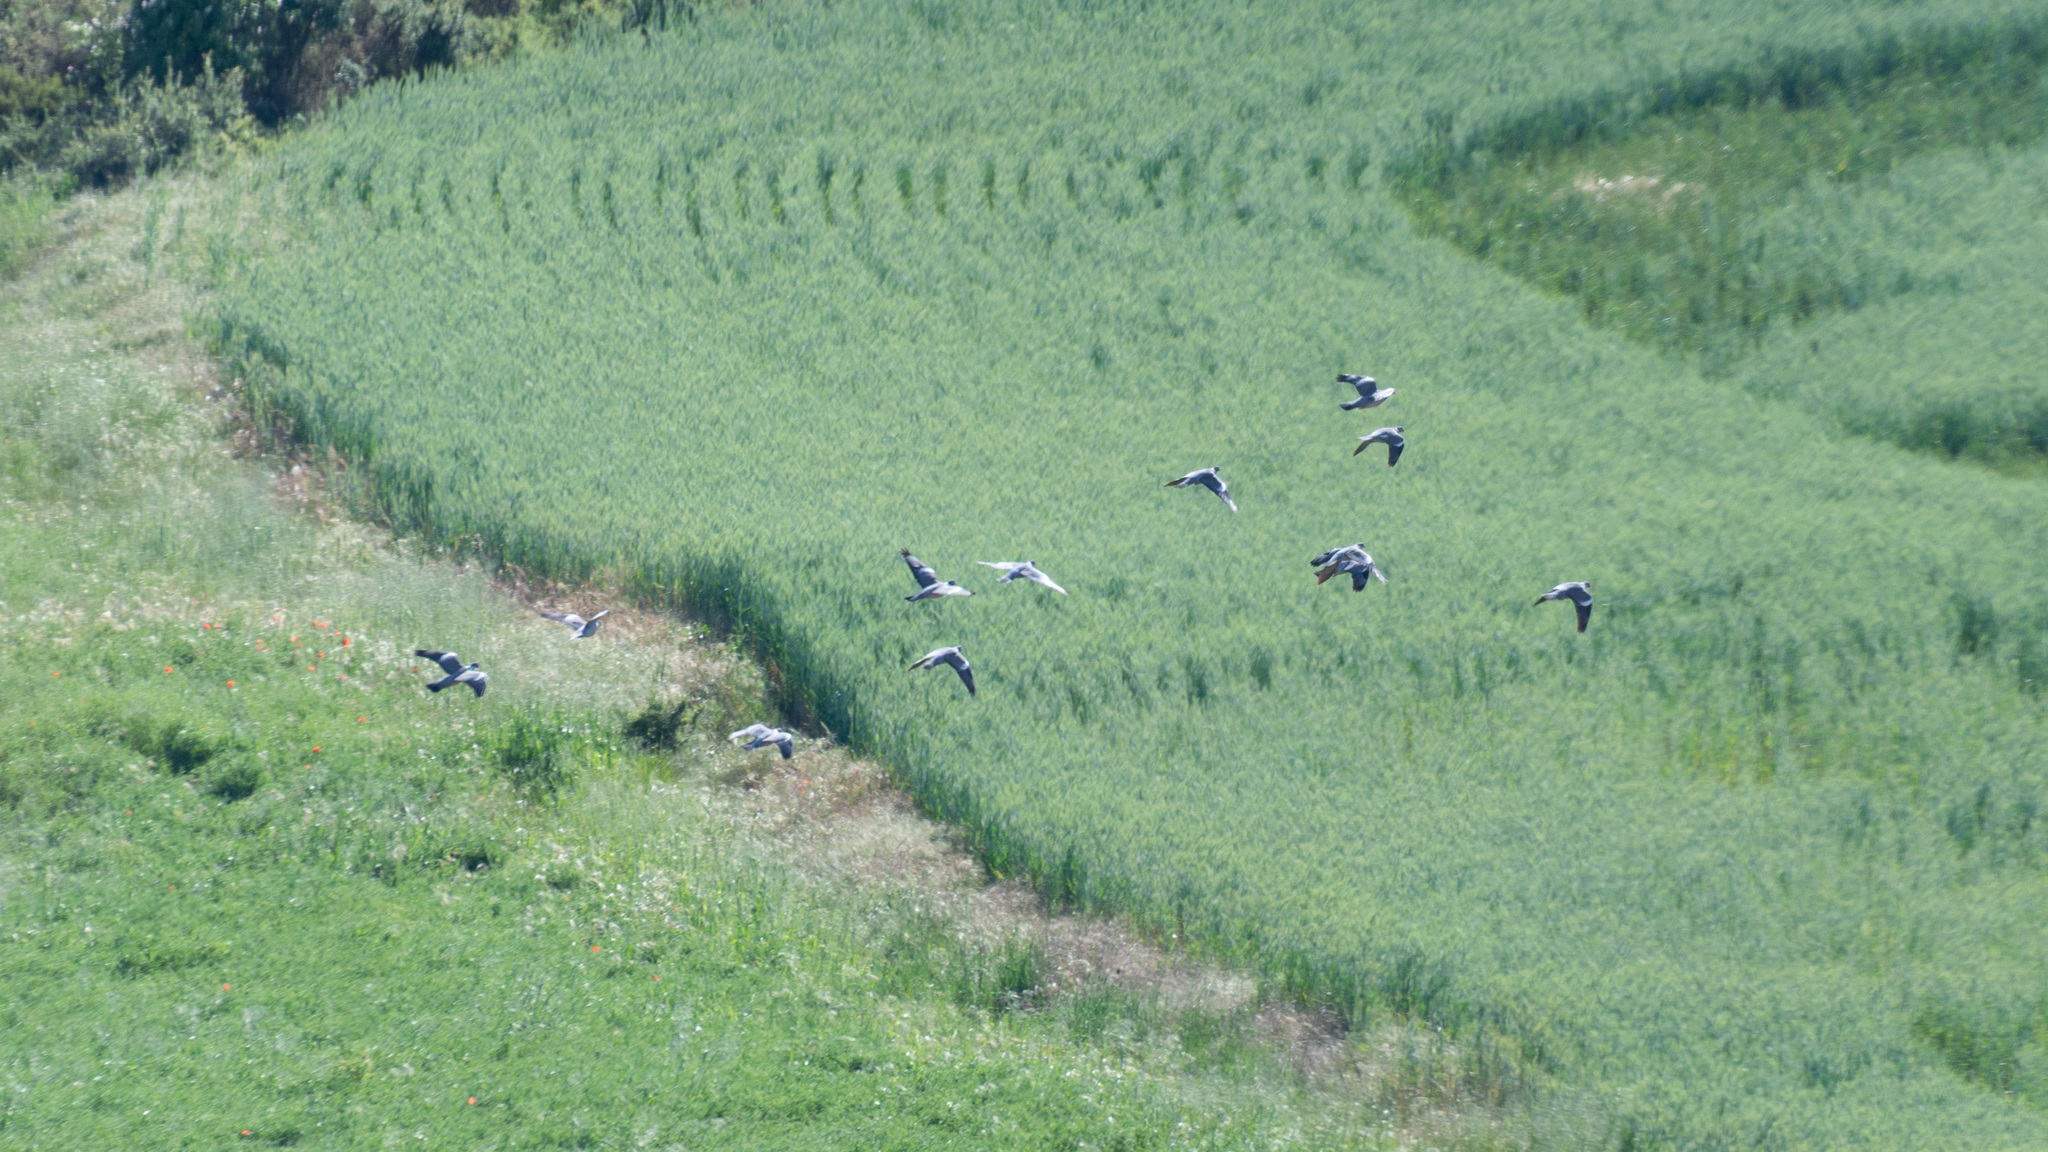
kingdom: Animalia
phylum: Chordata
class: Aves
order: Columbiformes
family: Columbidae
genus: Columba
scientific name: Columba palumbus
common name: Common wood pigeon
